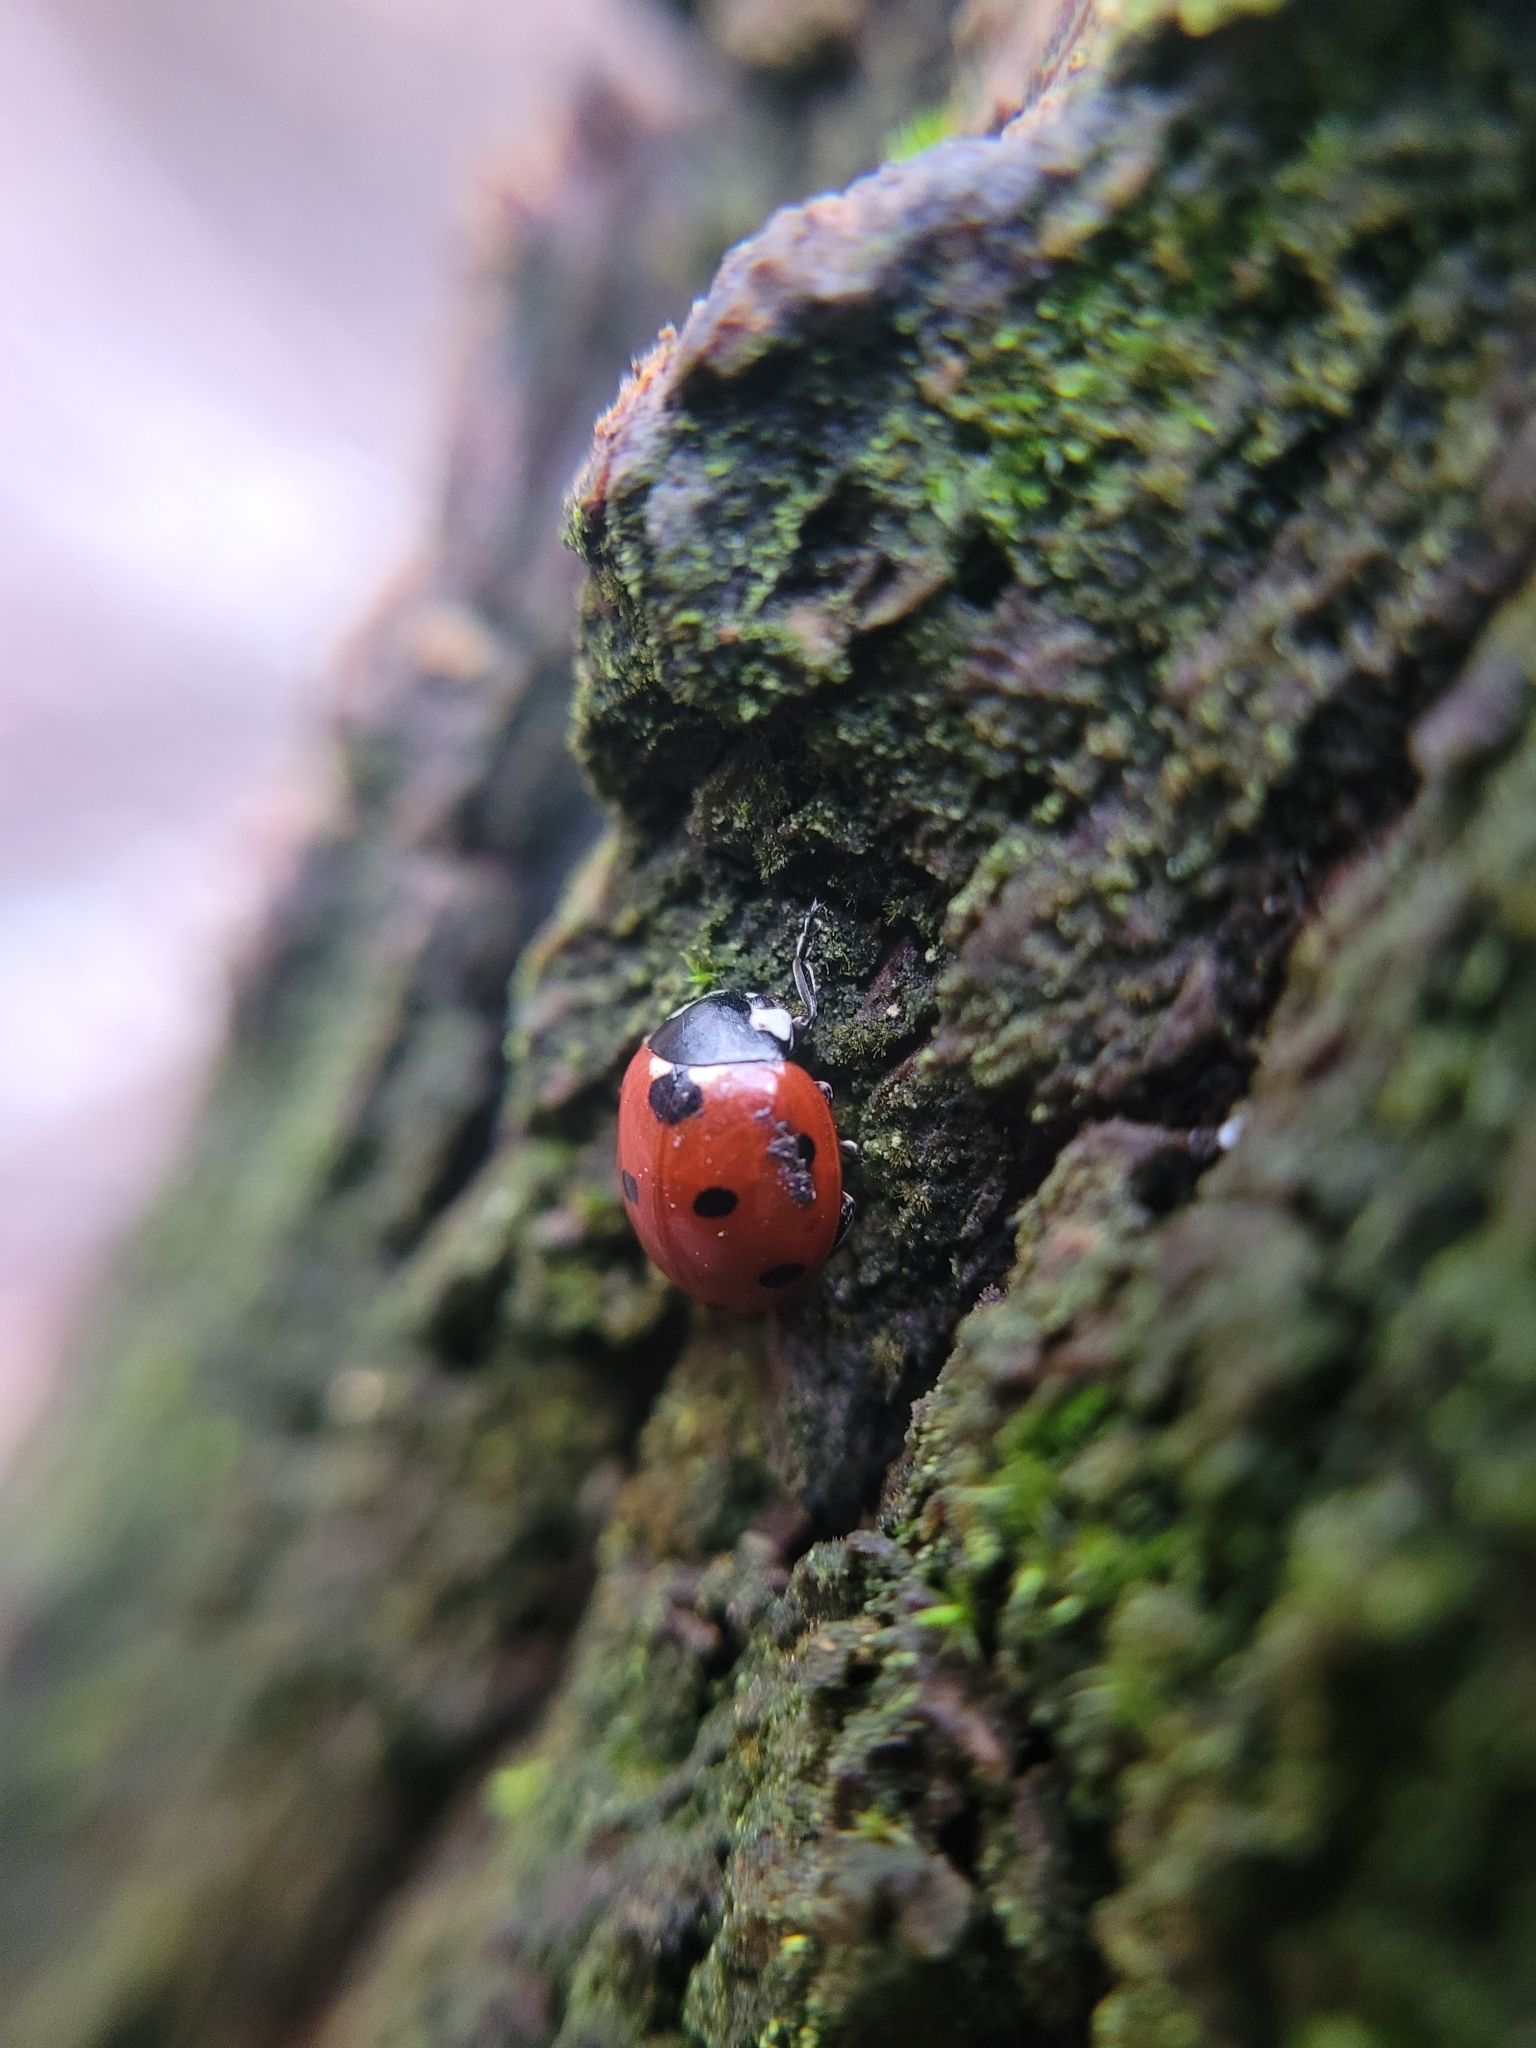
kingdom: Animalia
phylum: Arthropoda
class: Insecta
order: Coleoptera
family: Coccinellidae
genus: Coccinella
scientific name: Coccinella septempunctata
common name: Sevenspotted lady beetle
